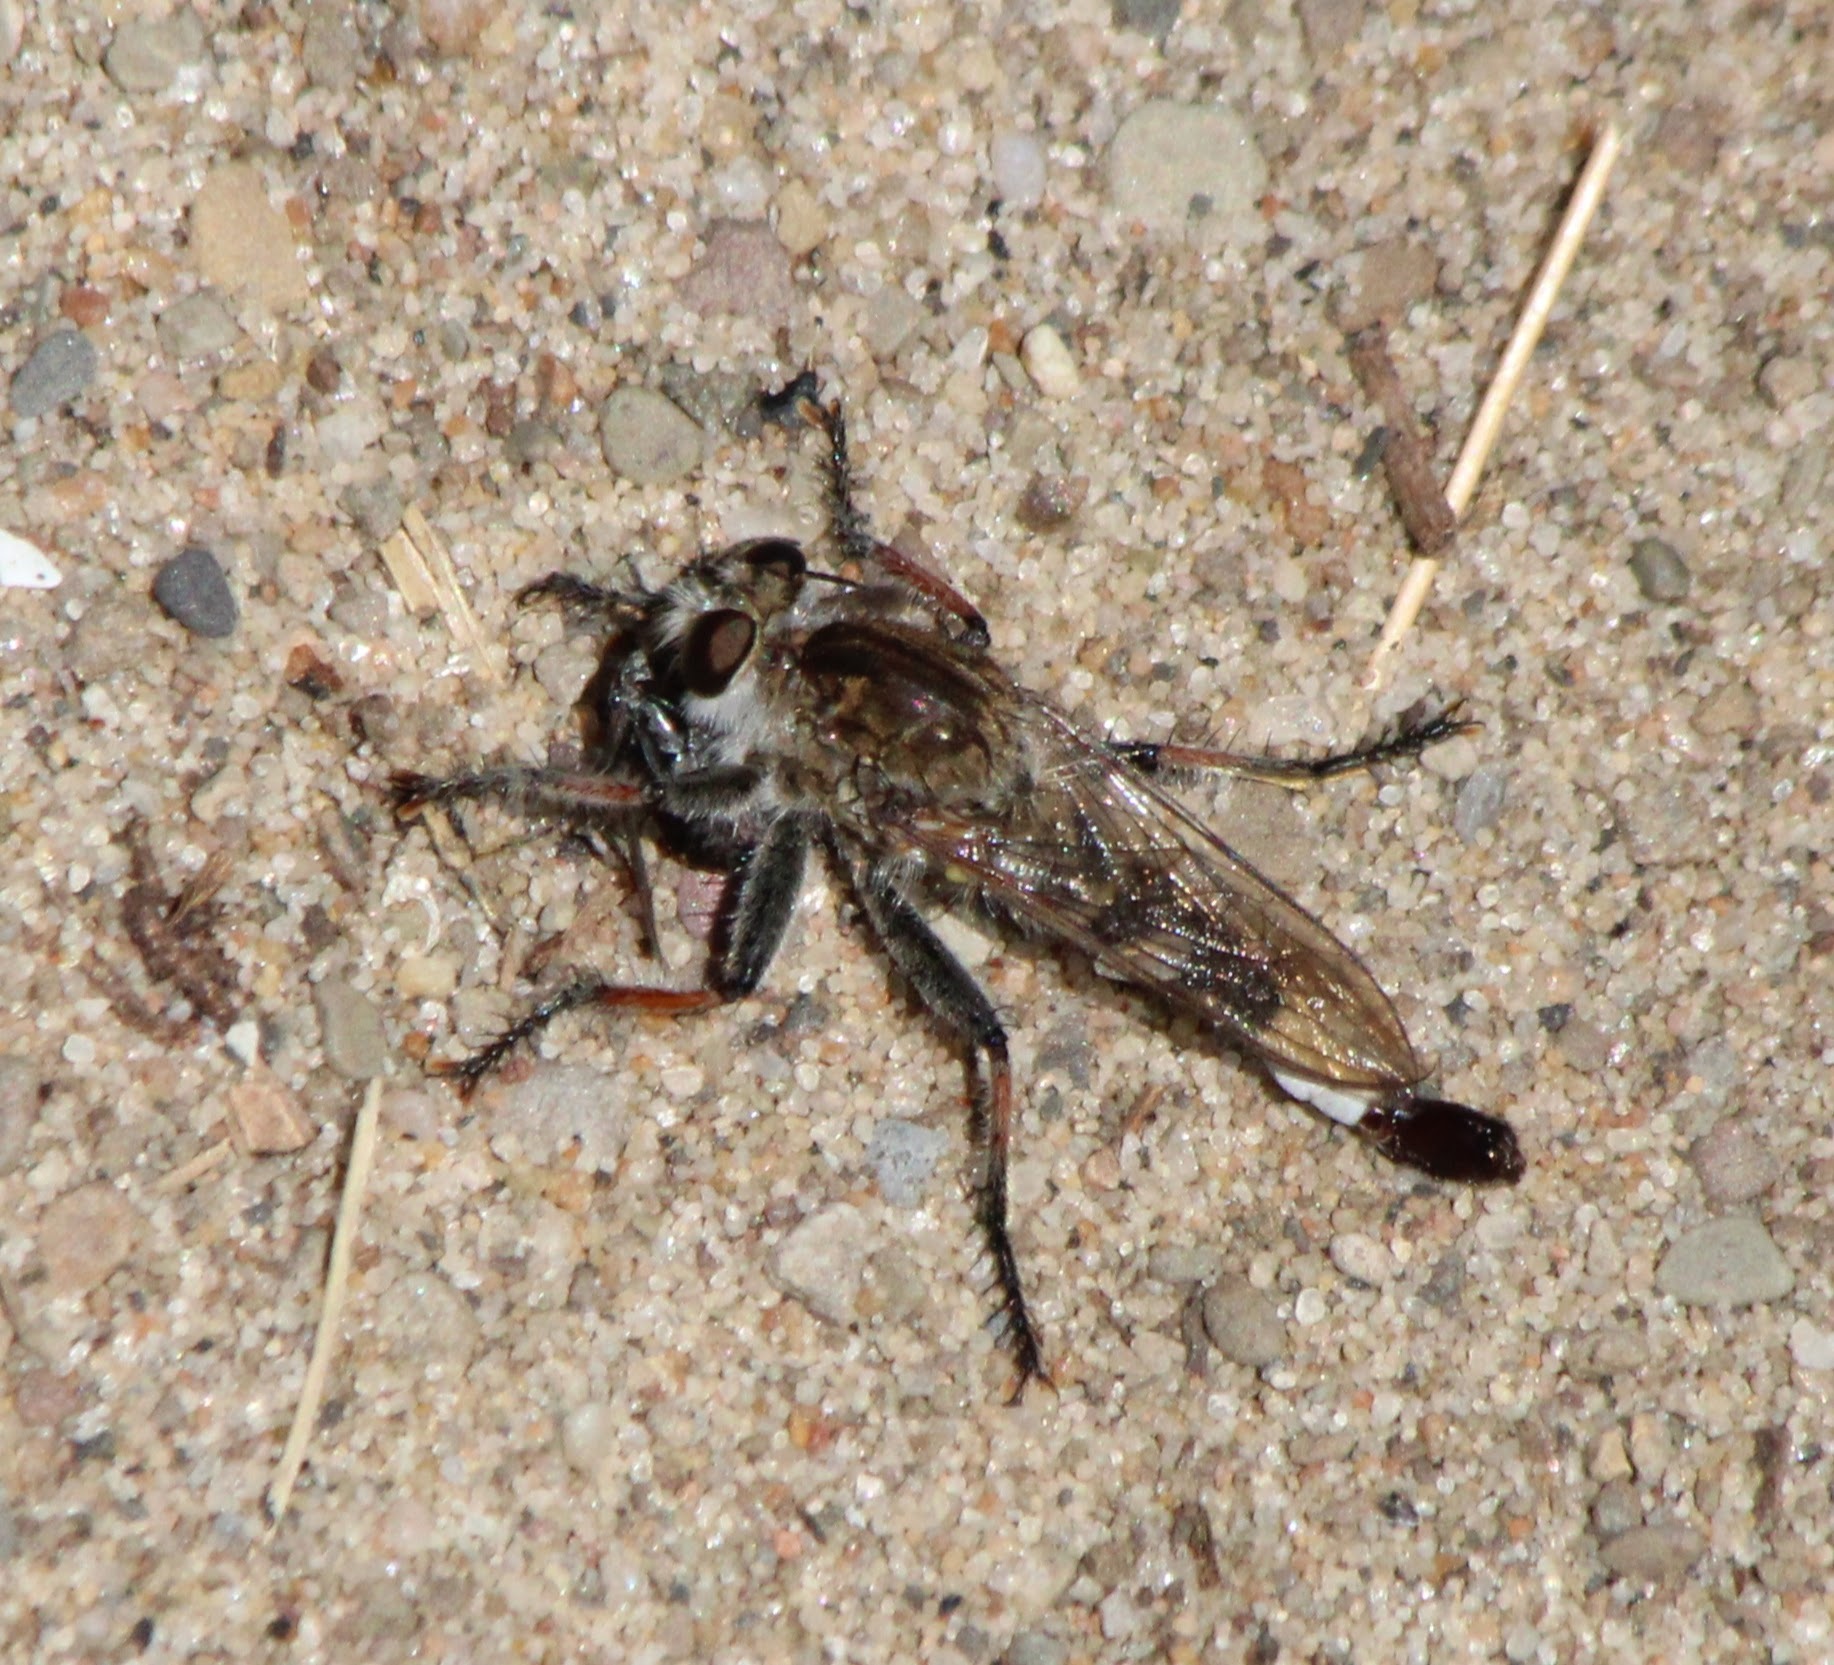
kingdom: Animalia
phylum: Arthropoda
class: Insecta
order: Diptera
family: Asilidae
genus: Efferia
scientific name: Efferia albibarbis
